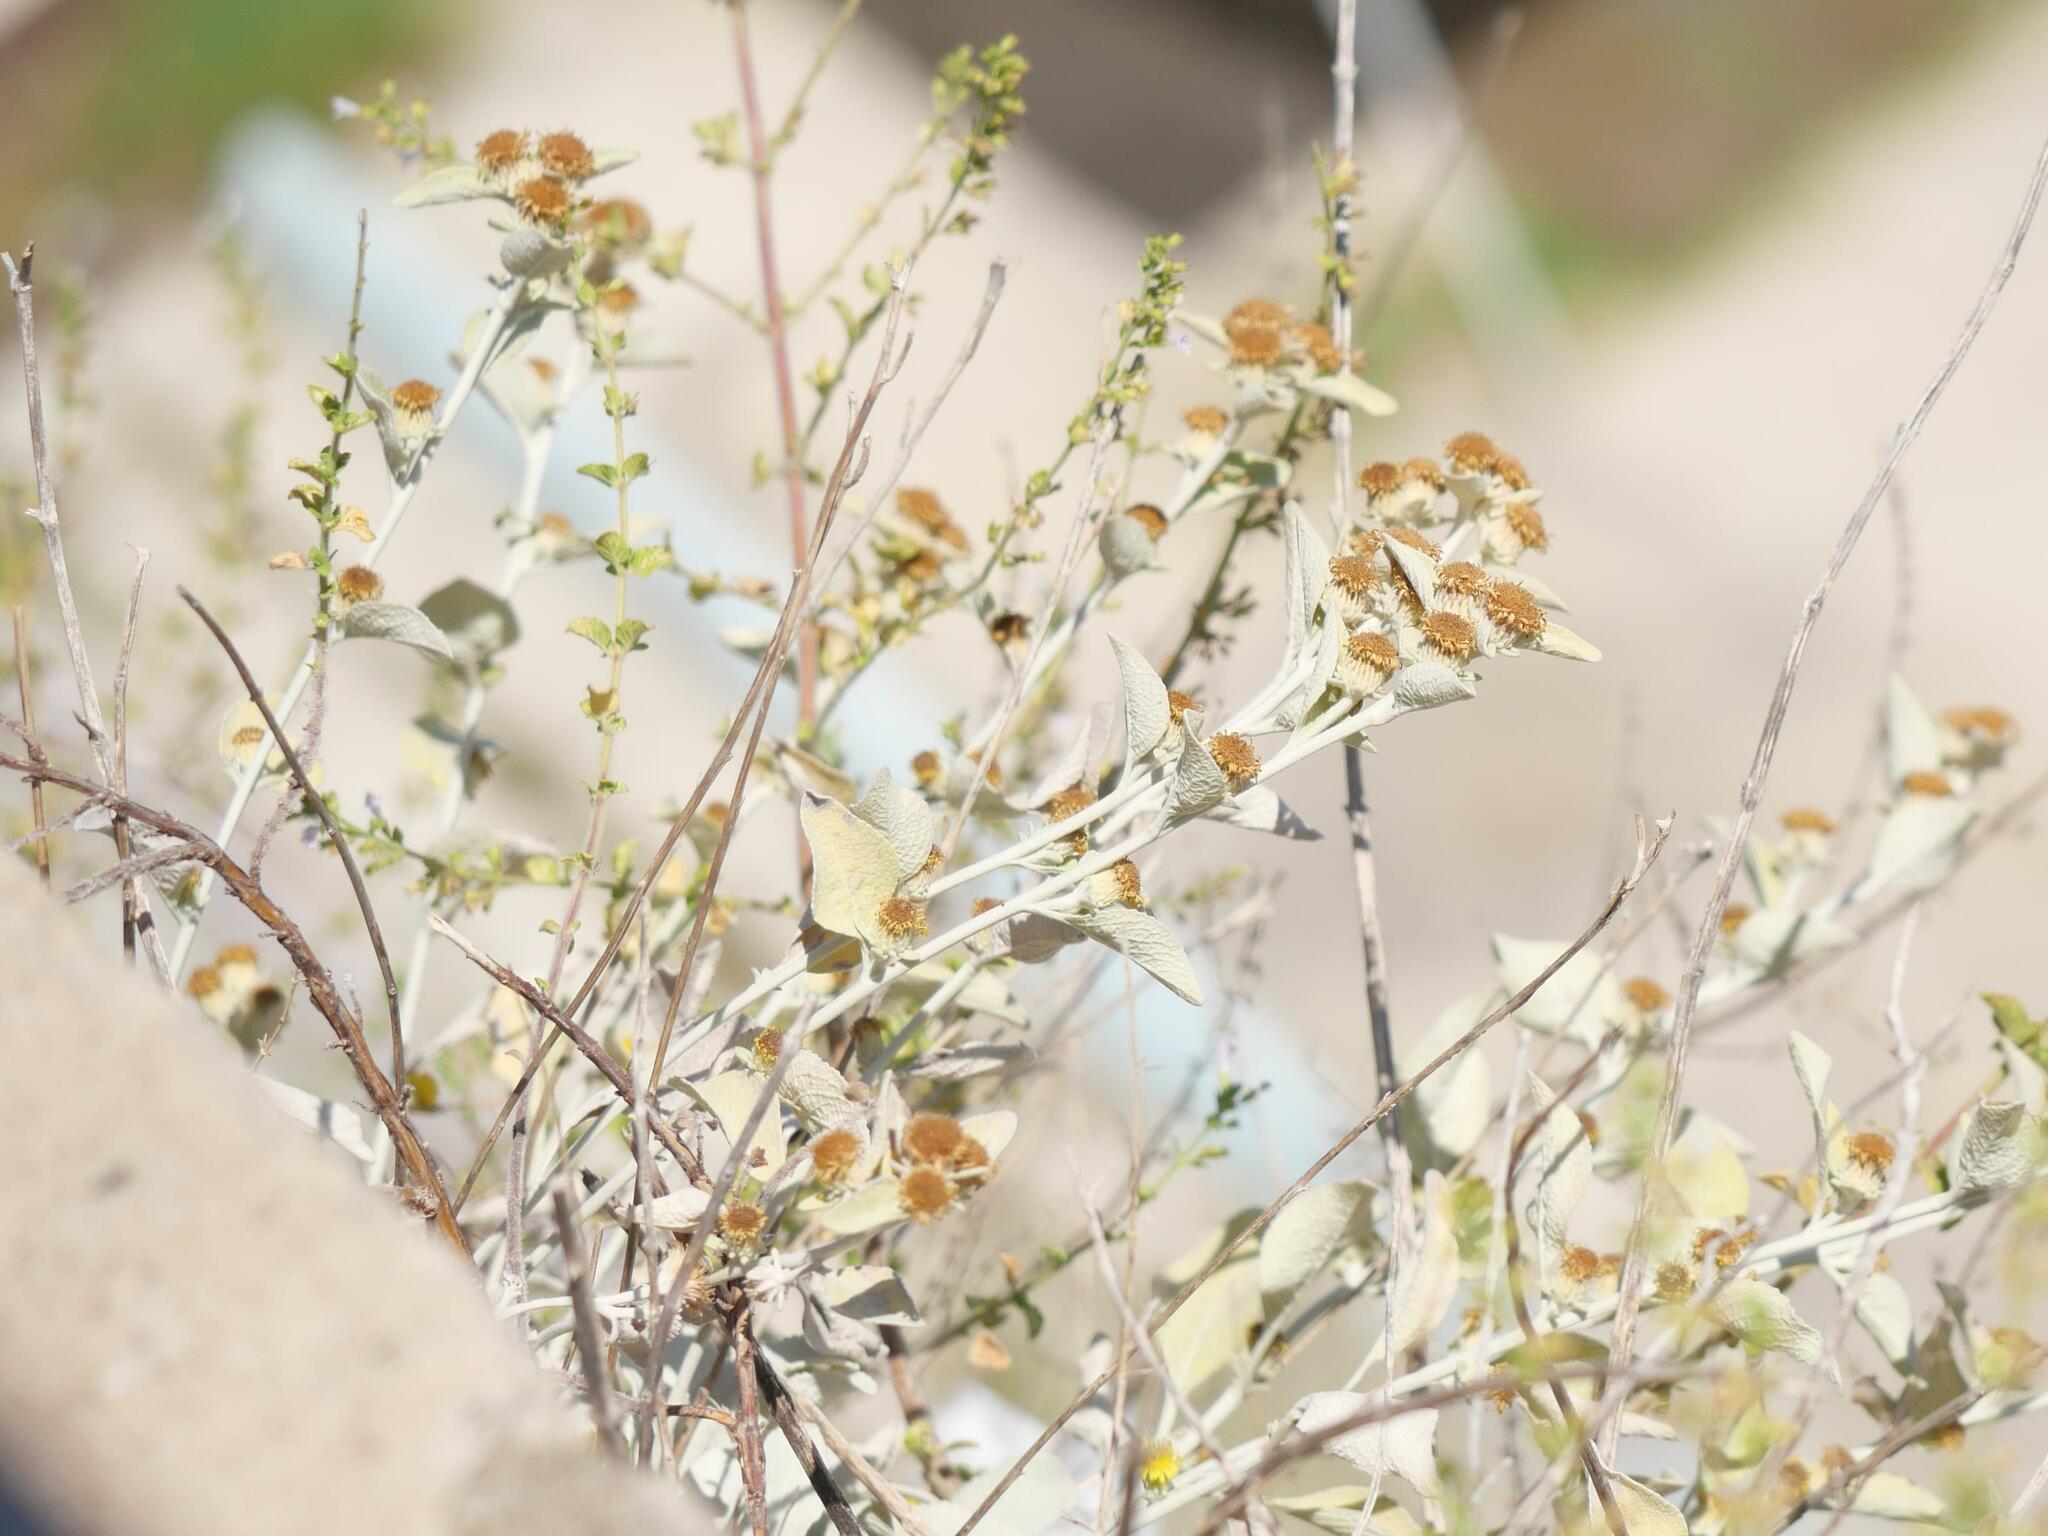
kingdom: Plantae
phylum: Tracheophyta
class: Magnoliopsida
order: Asterales
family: Asteraceae
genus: Pentanema
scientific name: Pentanema verbascifolium
